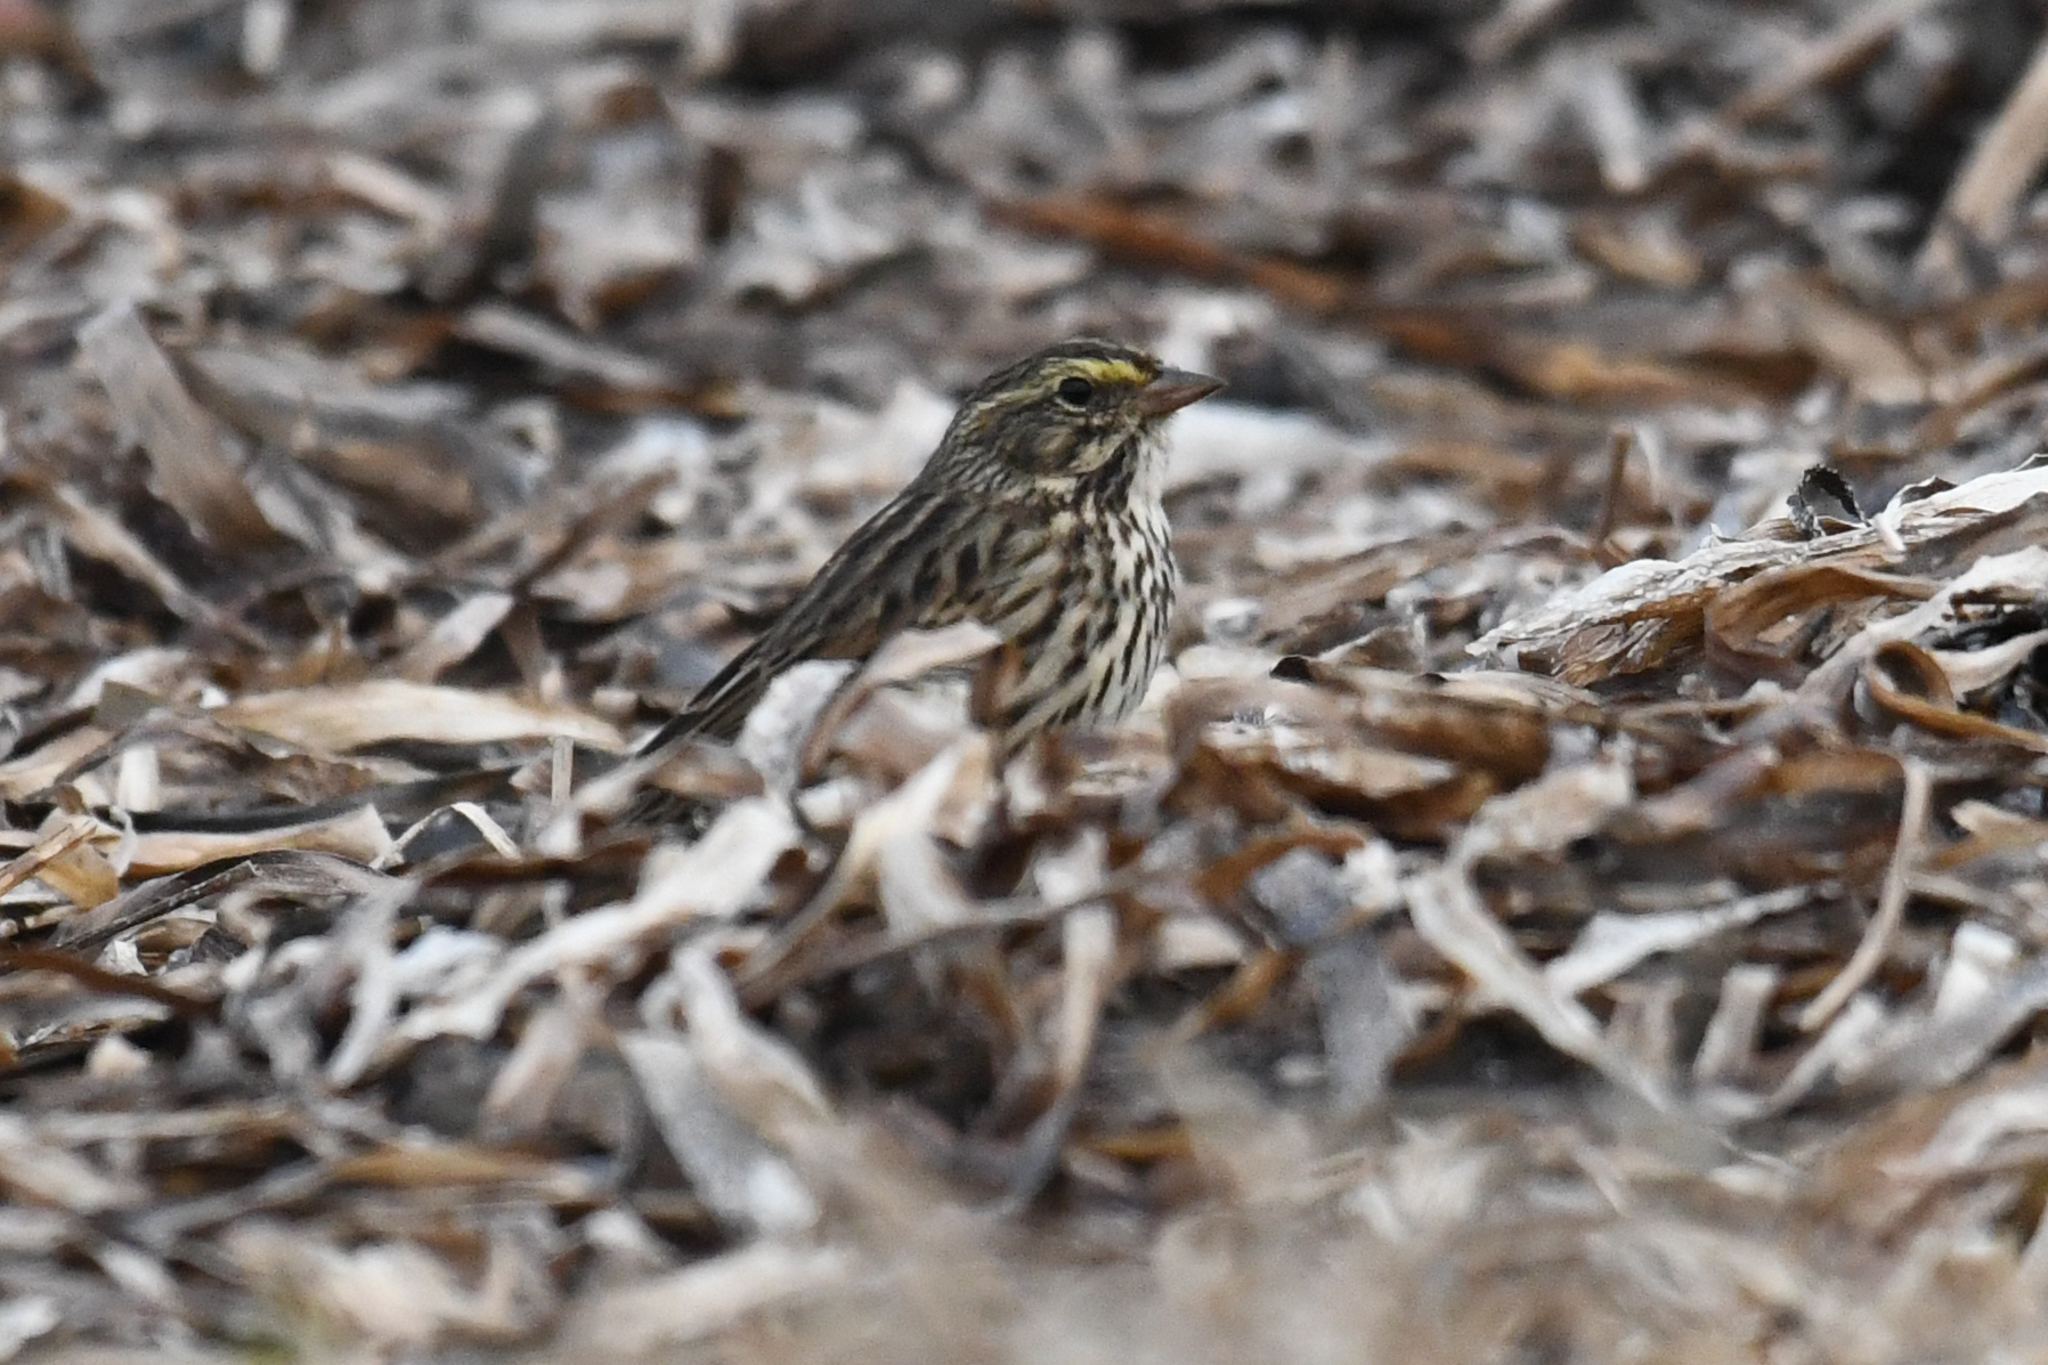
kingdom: Animalia
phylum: Chordata
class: Aves
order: Passeriformes
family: Passerellidae
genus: Passerculus
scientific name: Passerculus sandwichensis
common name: Savannah sparrow
